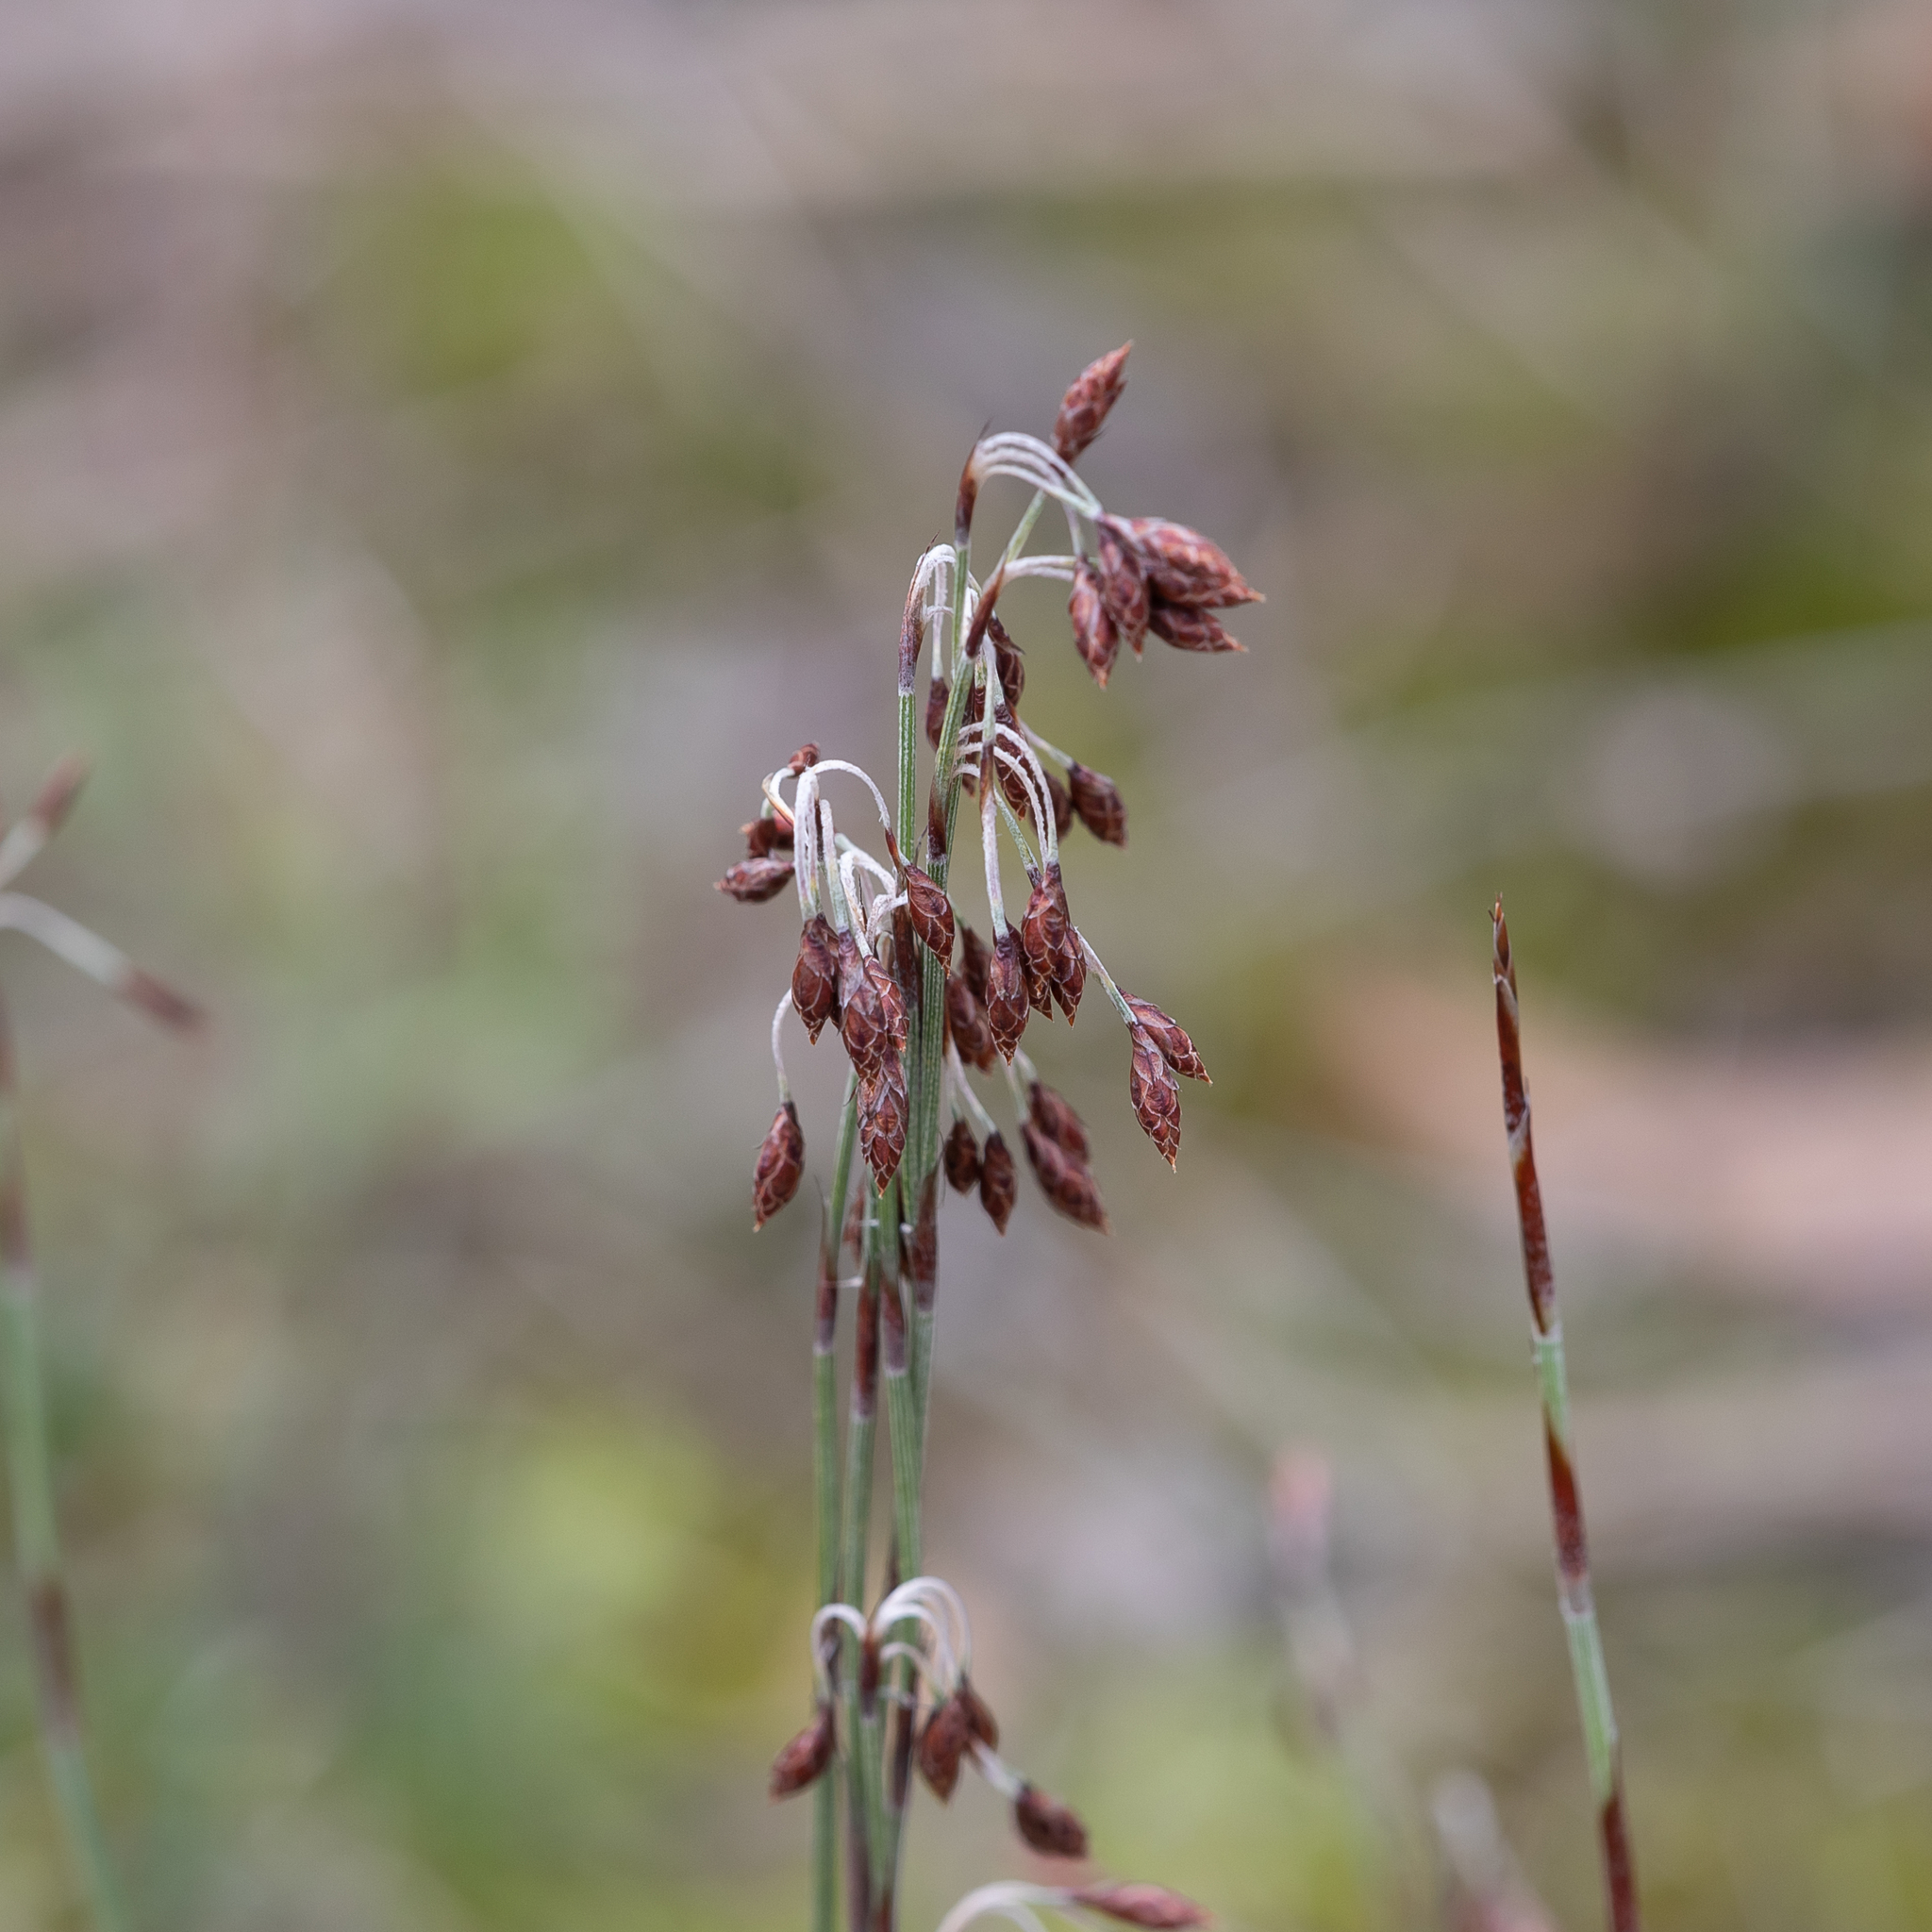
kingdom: Plantae
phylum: Tracheophyta
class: Liliopsida
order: Poales
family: Restionaceae
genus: Hypolaena
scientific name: Hypolaena fastigiata
